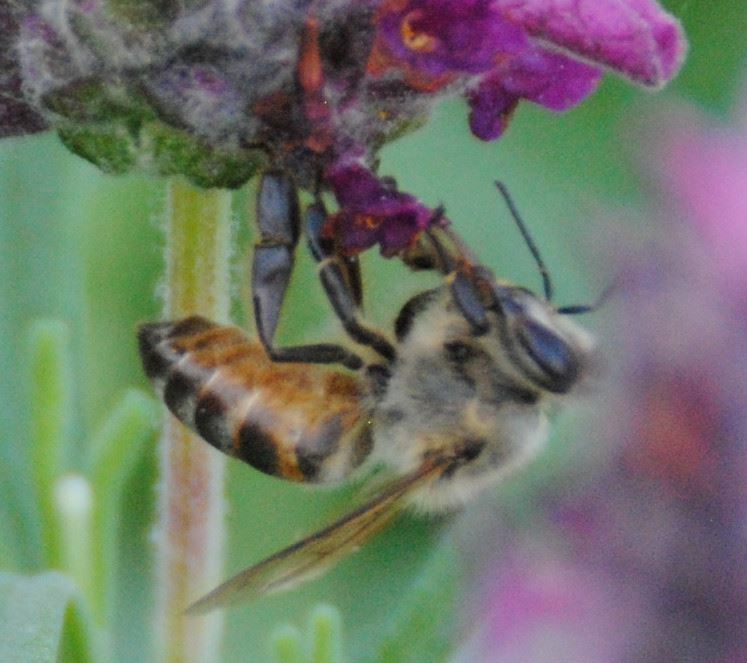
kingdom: Animalia
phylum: Arthropoda
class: Insecta
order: Hymenoptera
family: Apidae
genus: Apis
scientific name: Apis mellifera
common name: Honey bee
